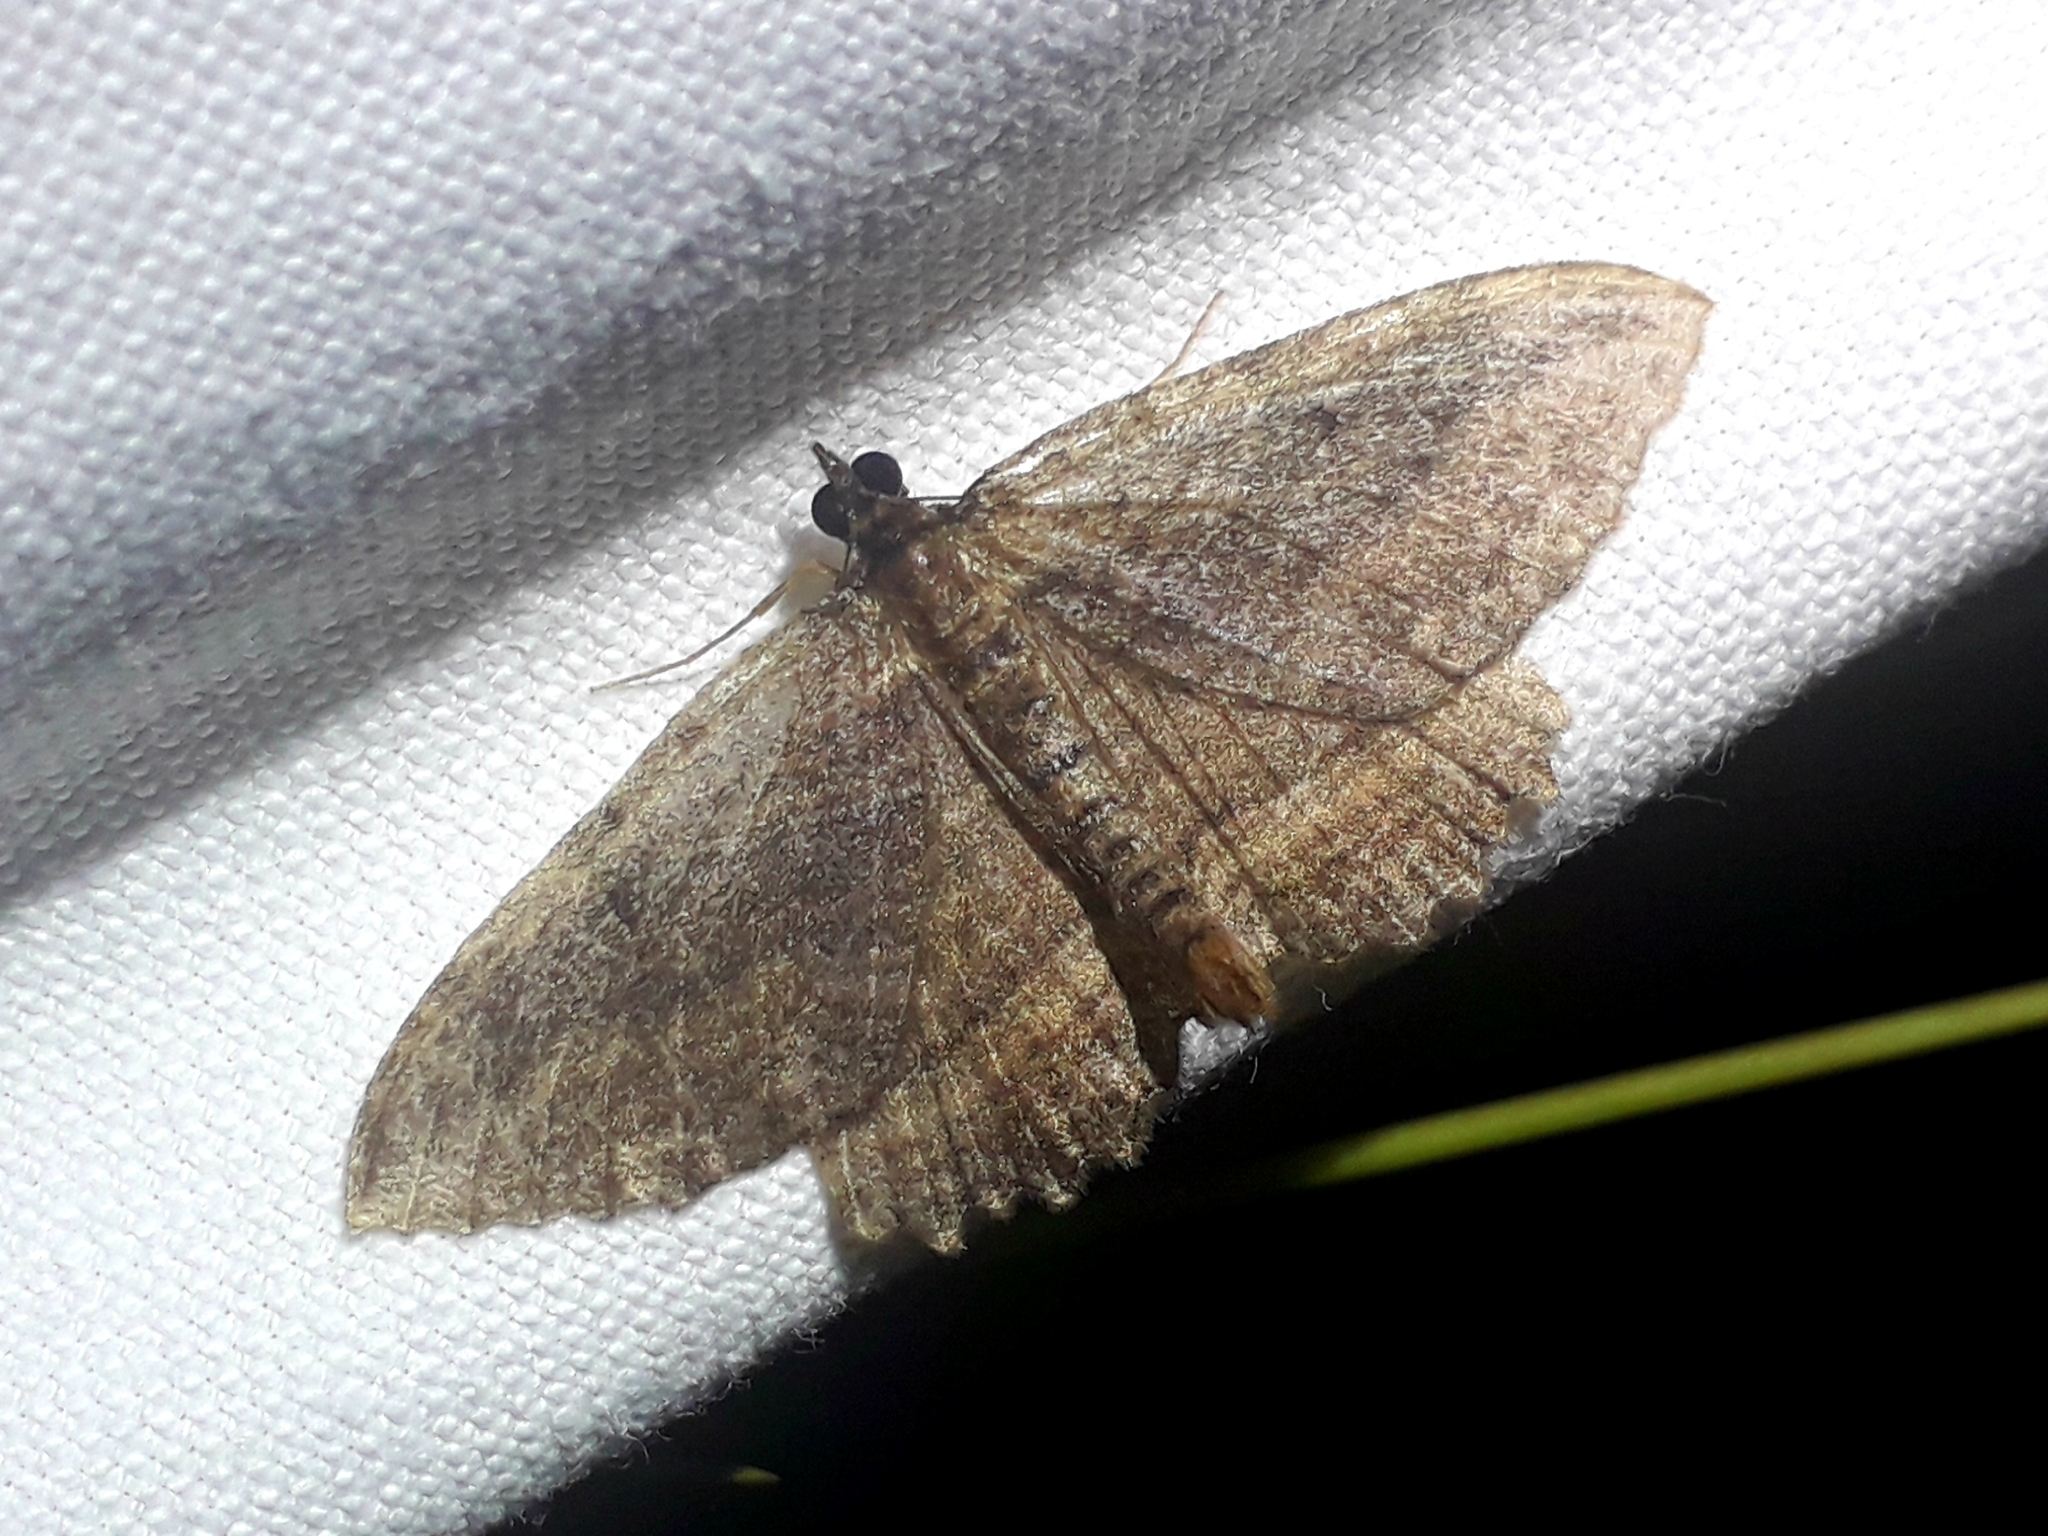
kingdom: Animalia
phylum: Arthropoda
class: Insecta
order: Lepidoptera
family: Geometridae
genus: Philereme
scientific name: Philereme transversata
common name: Dark umber
